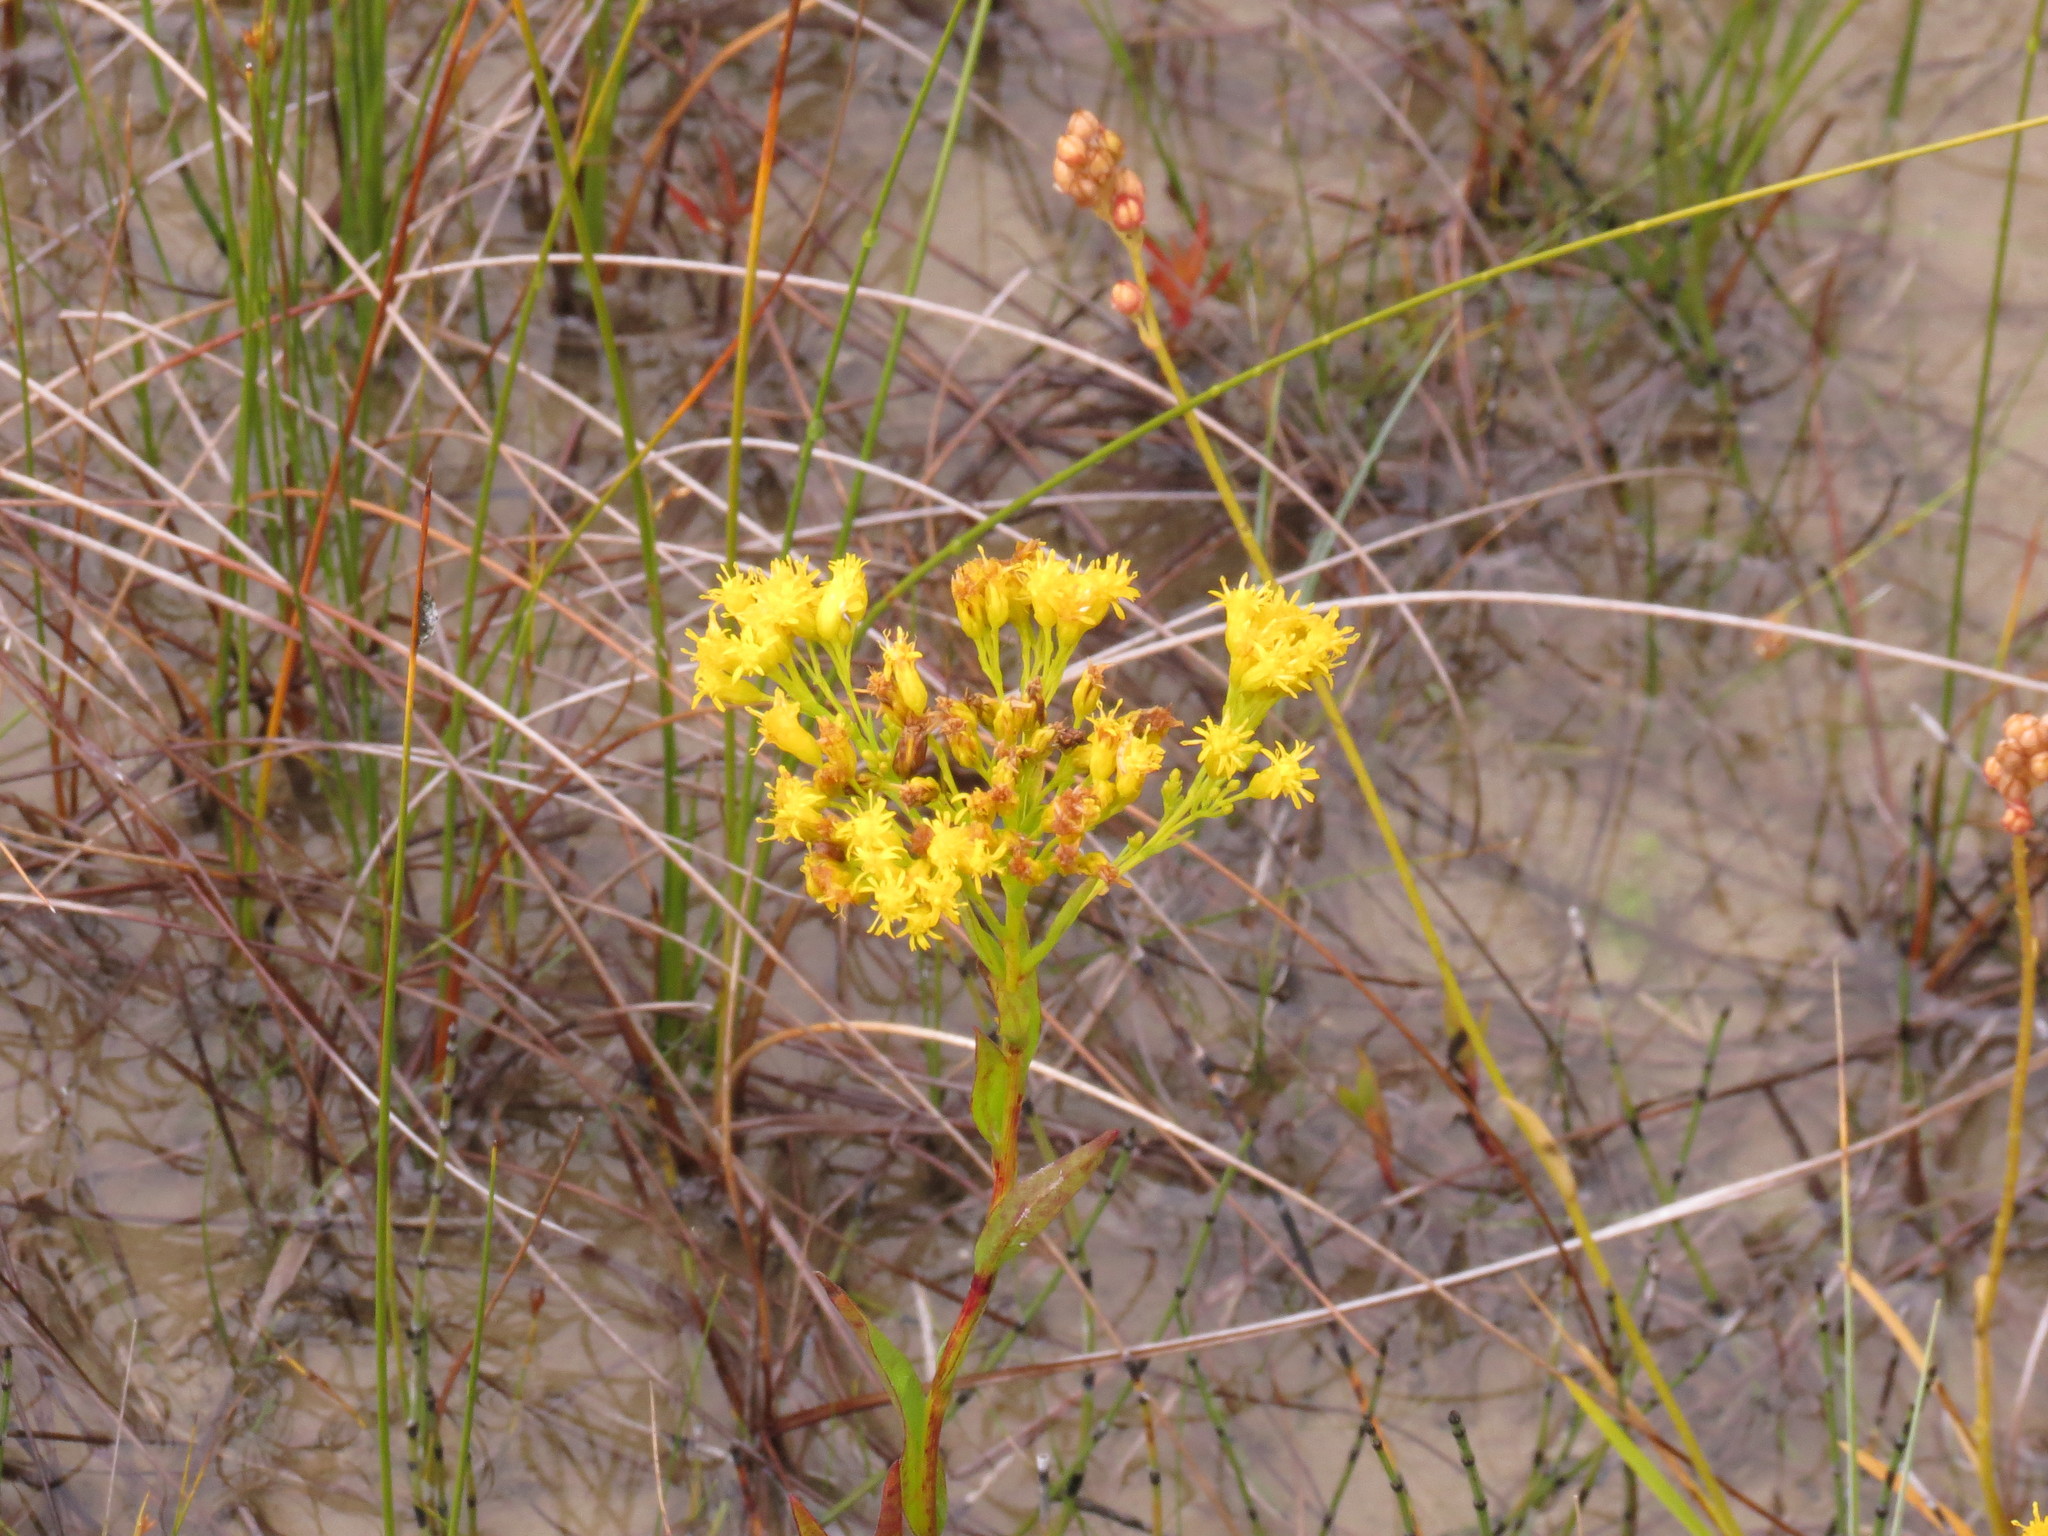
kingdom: Plantae
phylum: Tracheophyta
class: Magnoliopsida
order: Asterales
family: Asteraceae
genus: Solidago
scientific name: Solidago ohioensis
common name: Ohio goldenrod
